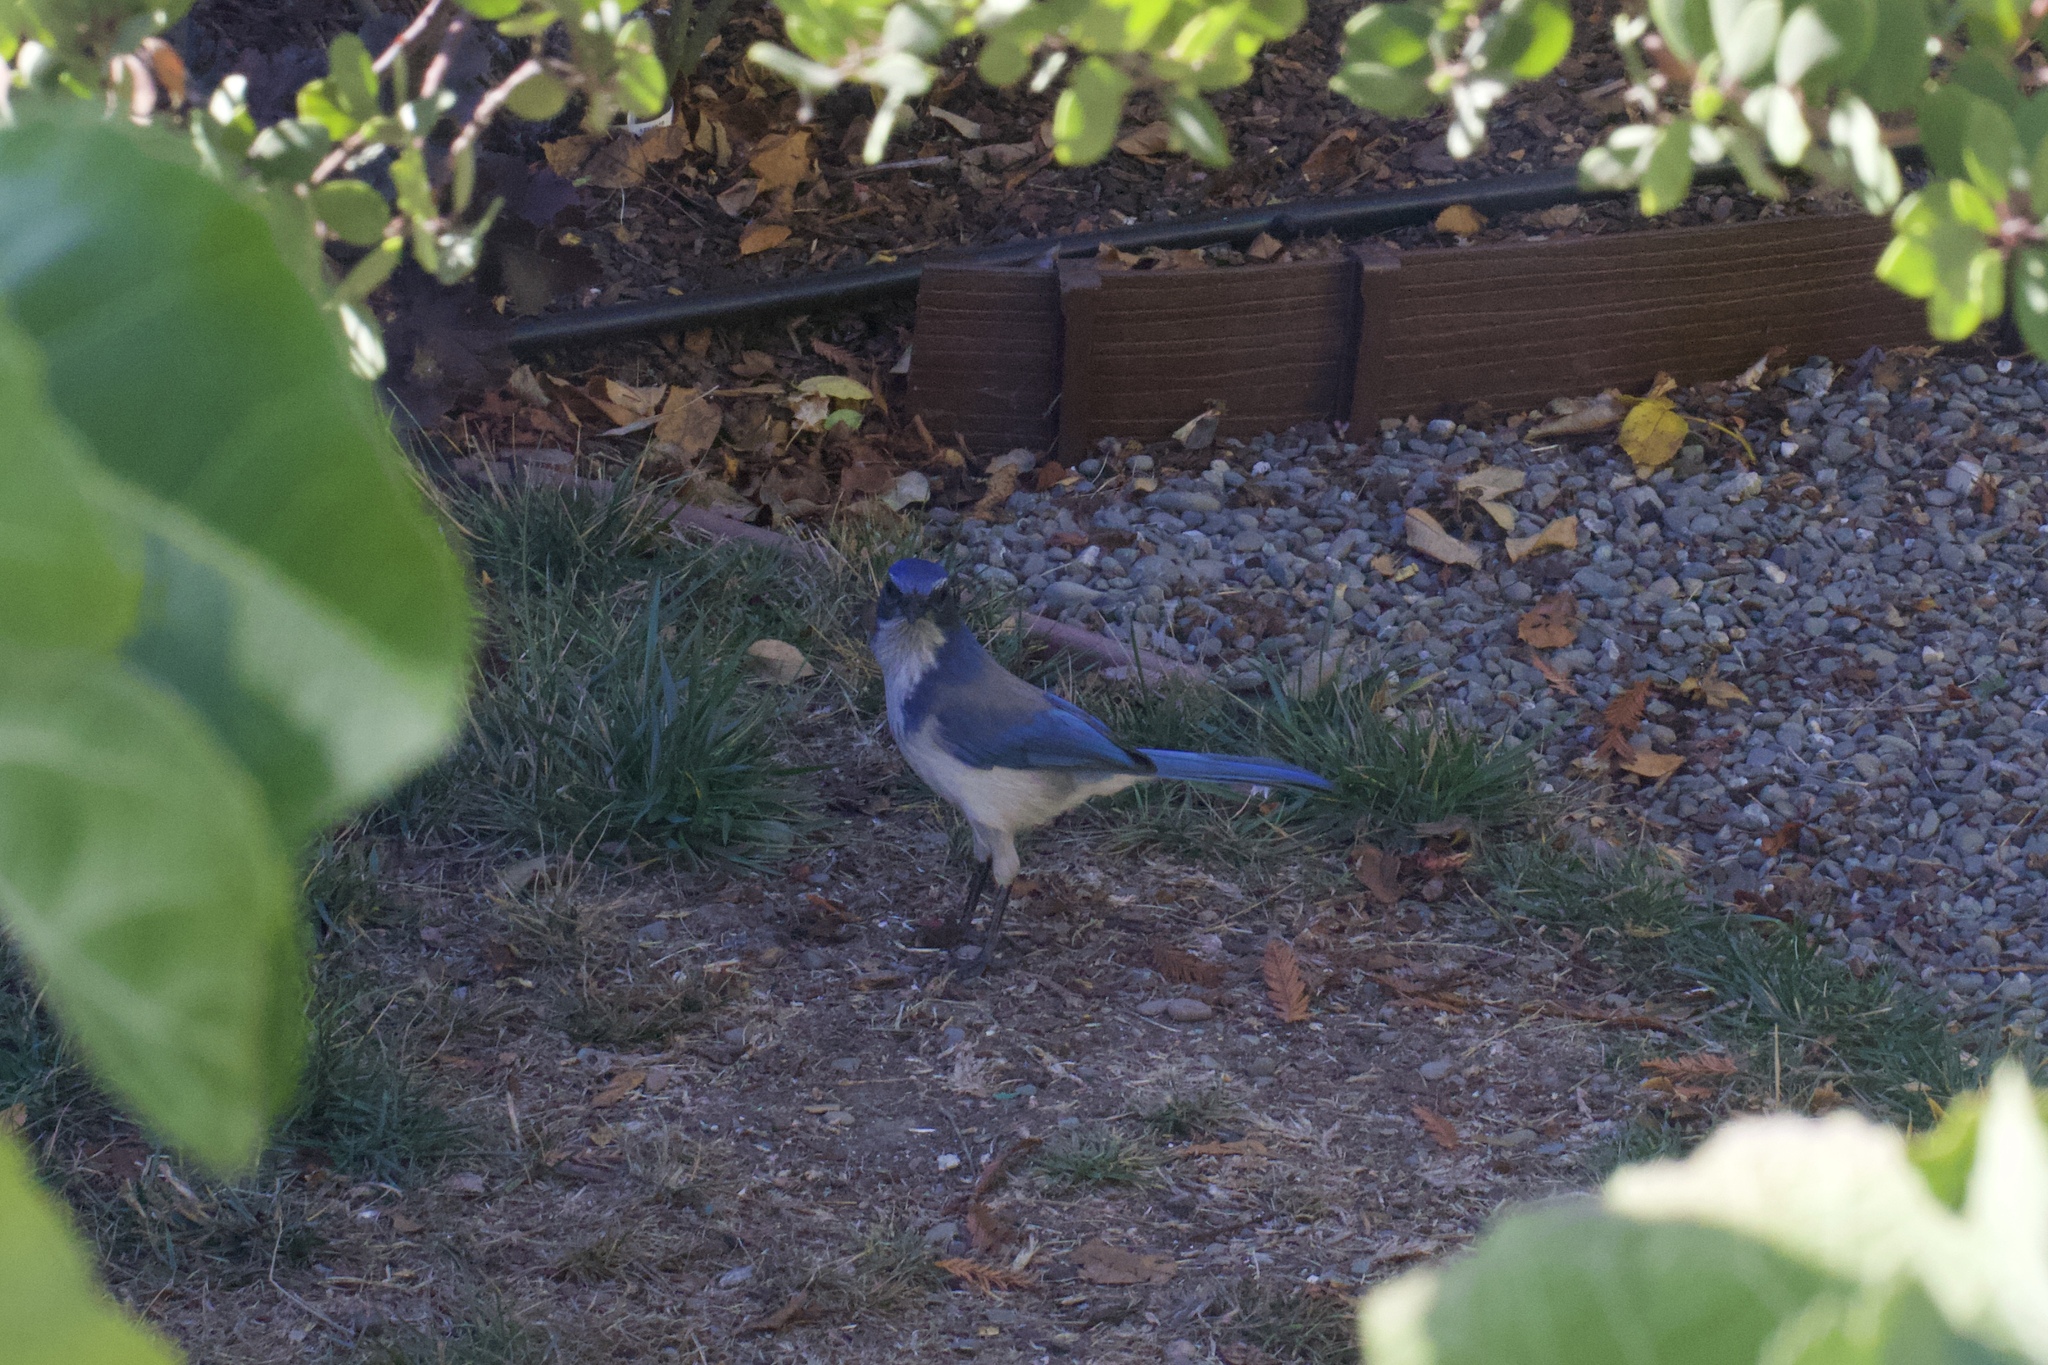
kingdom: Animalia
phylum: Chordata
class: Aves
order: Passeriformes
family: Corvidae
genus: Aphelocoma
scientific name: Aphelocoma californica
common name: California scrub-jay
